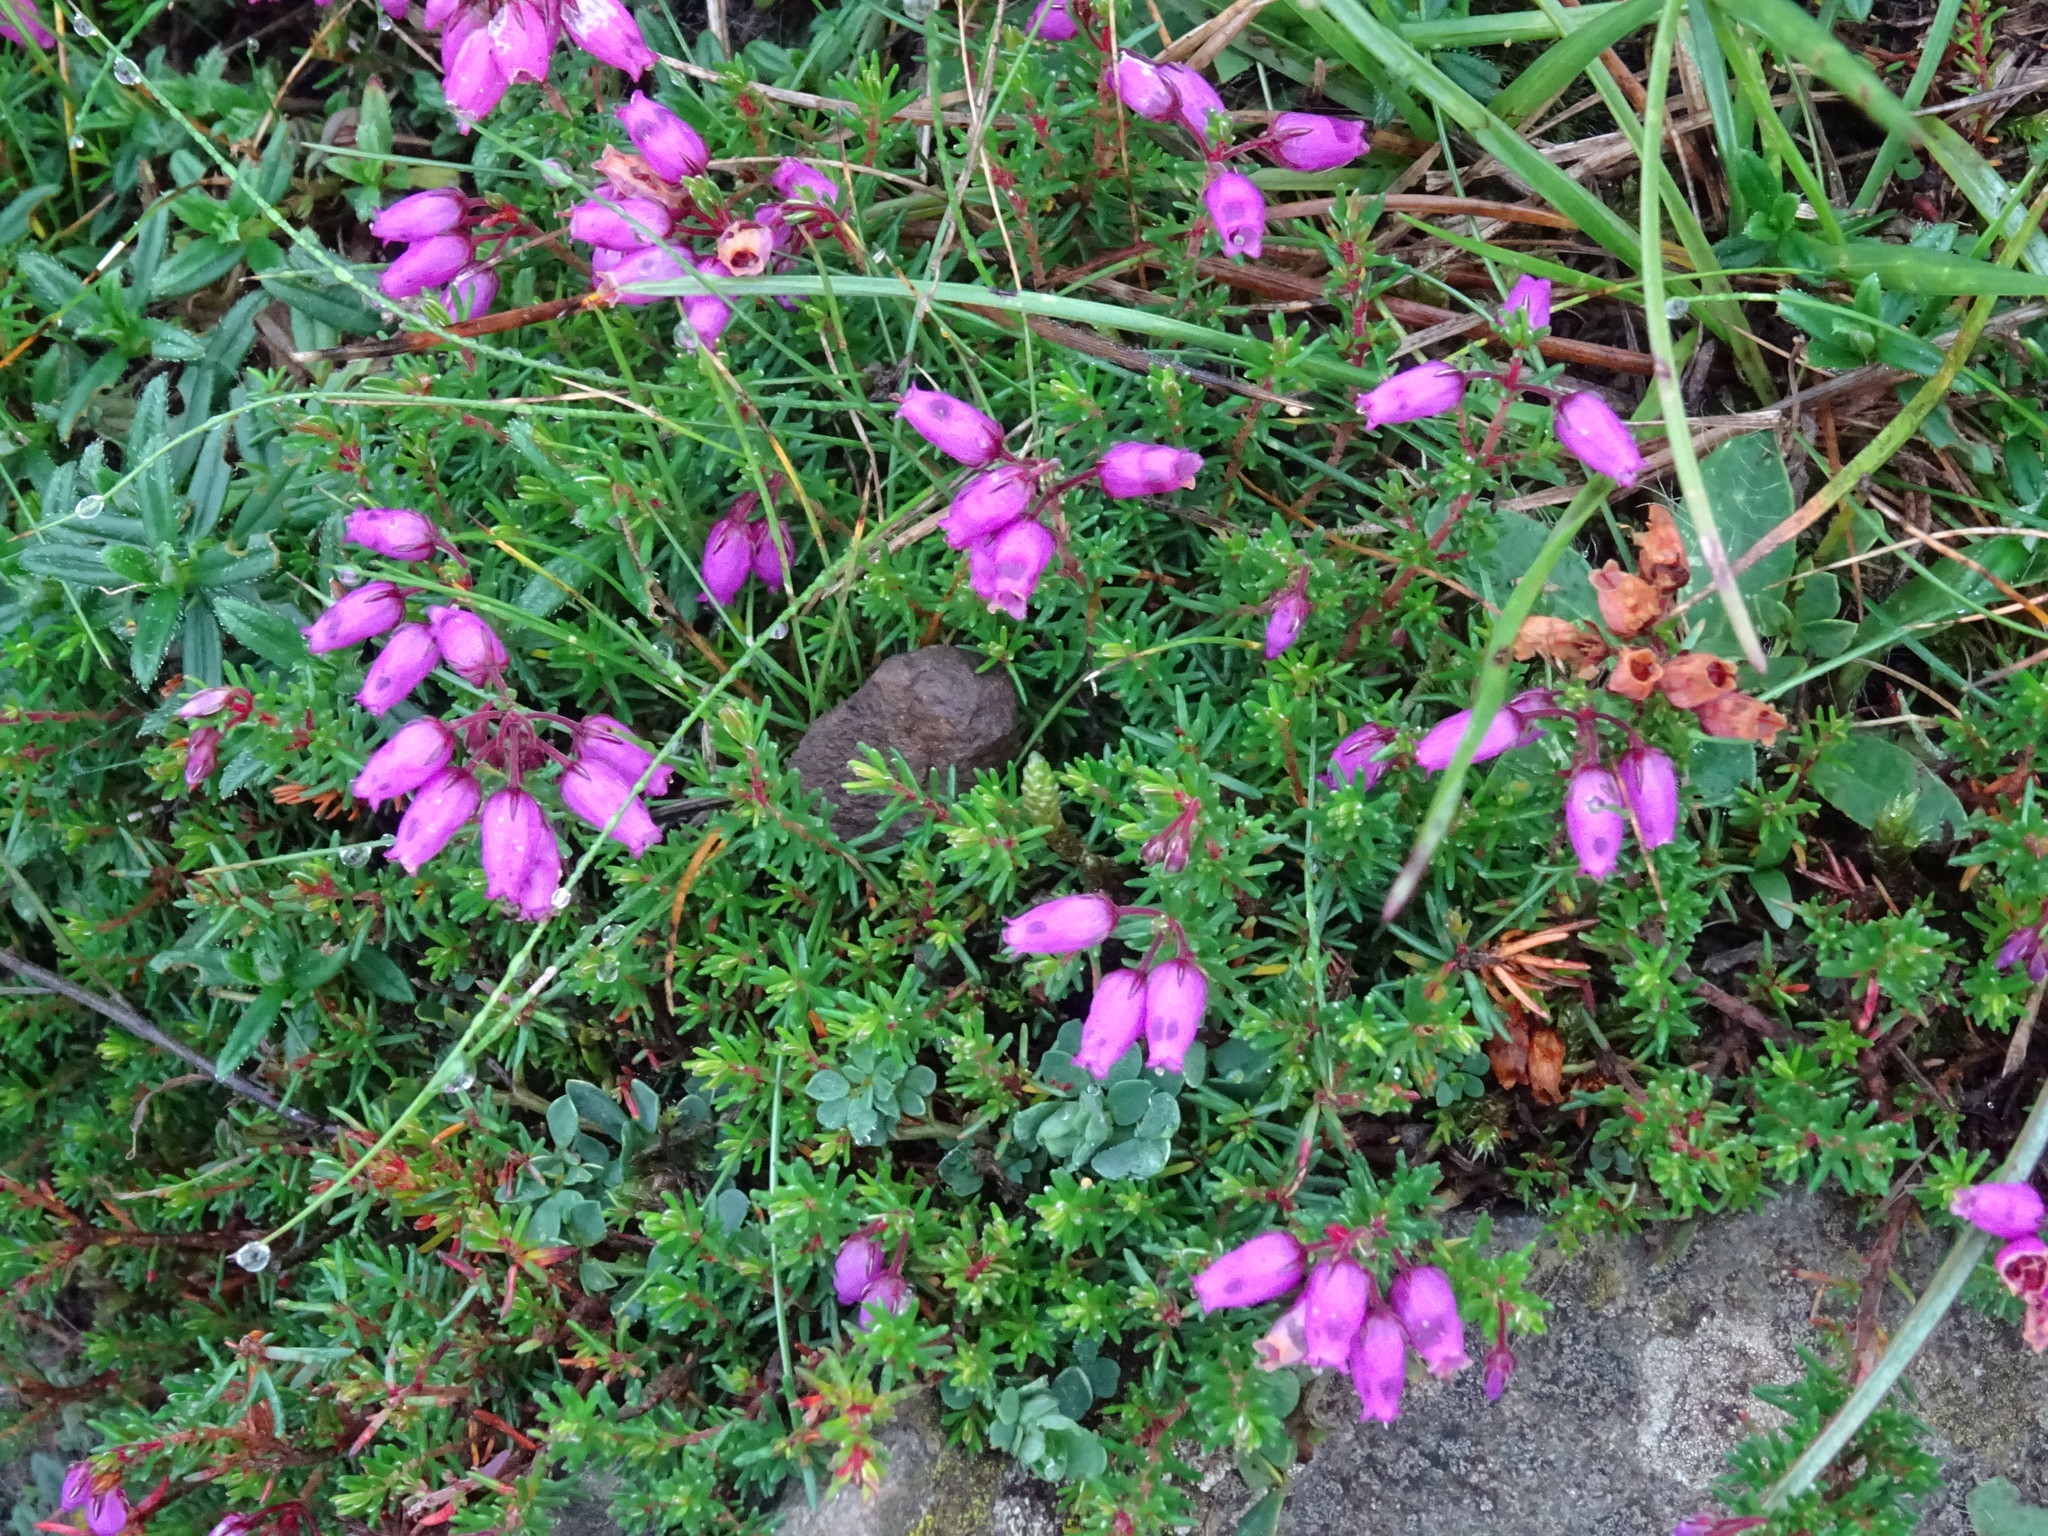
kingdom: Plantae
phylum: Tracheophyta
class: Magnoliopsida
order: Ericales
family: Ericaceae
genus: Erica
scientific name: Erica cinerea
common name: Bell heather
